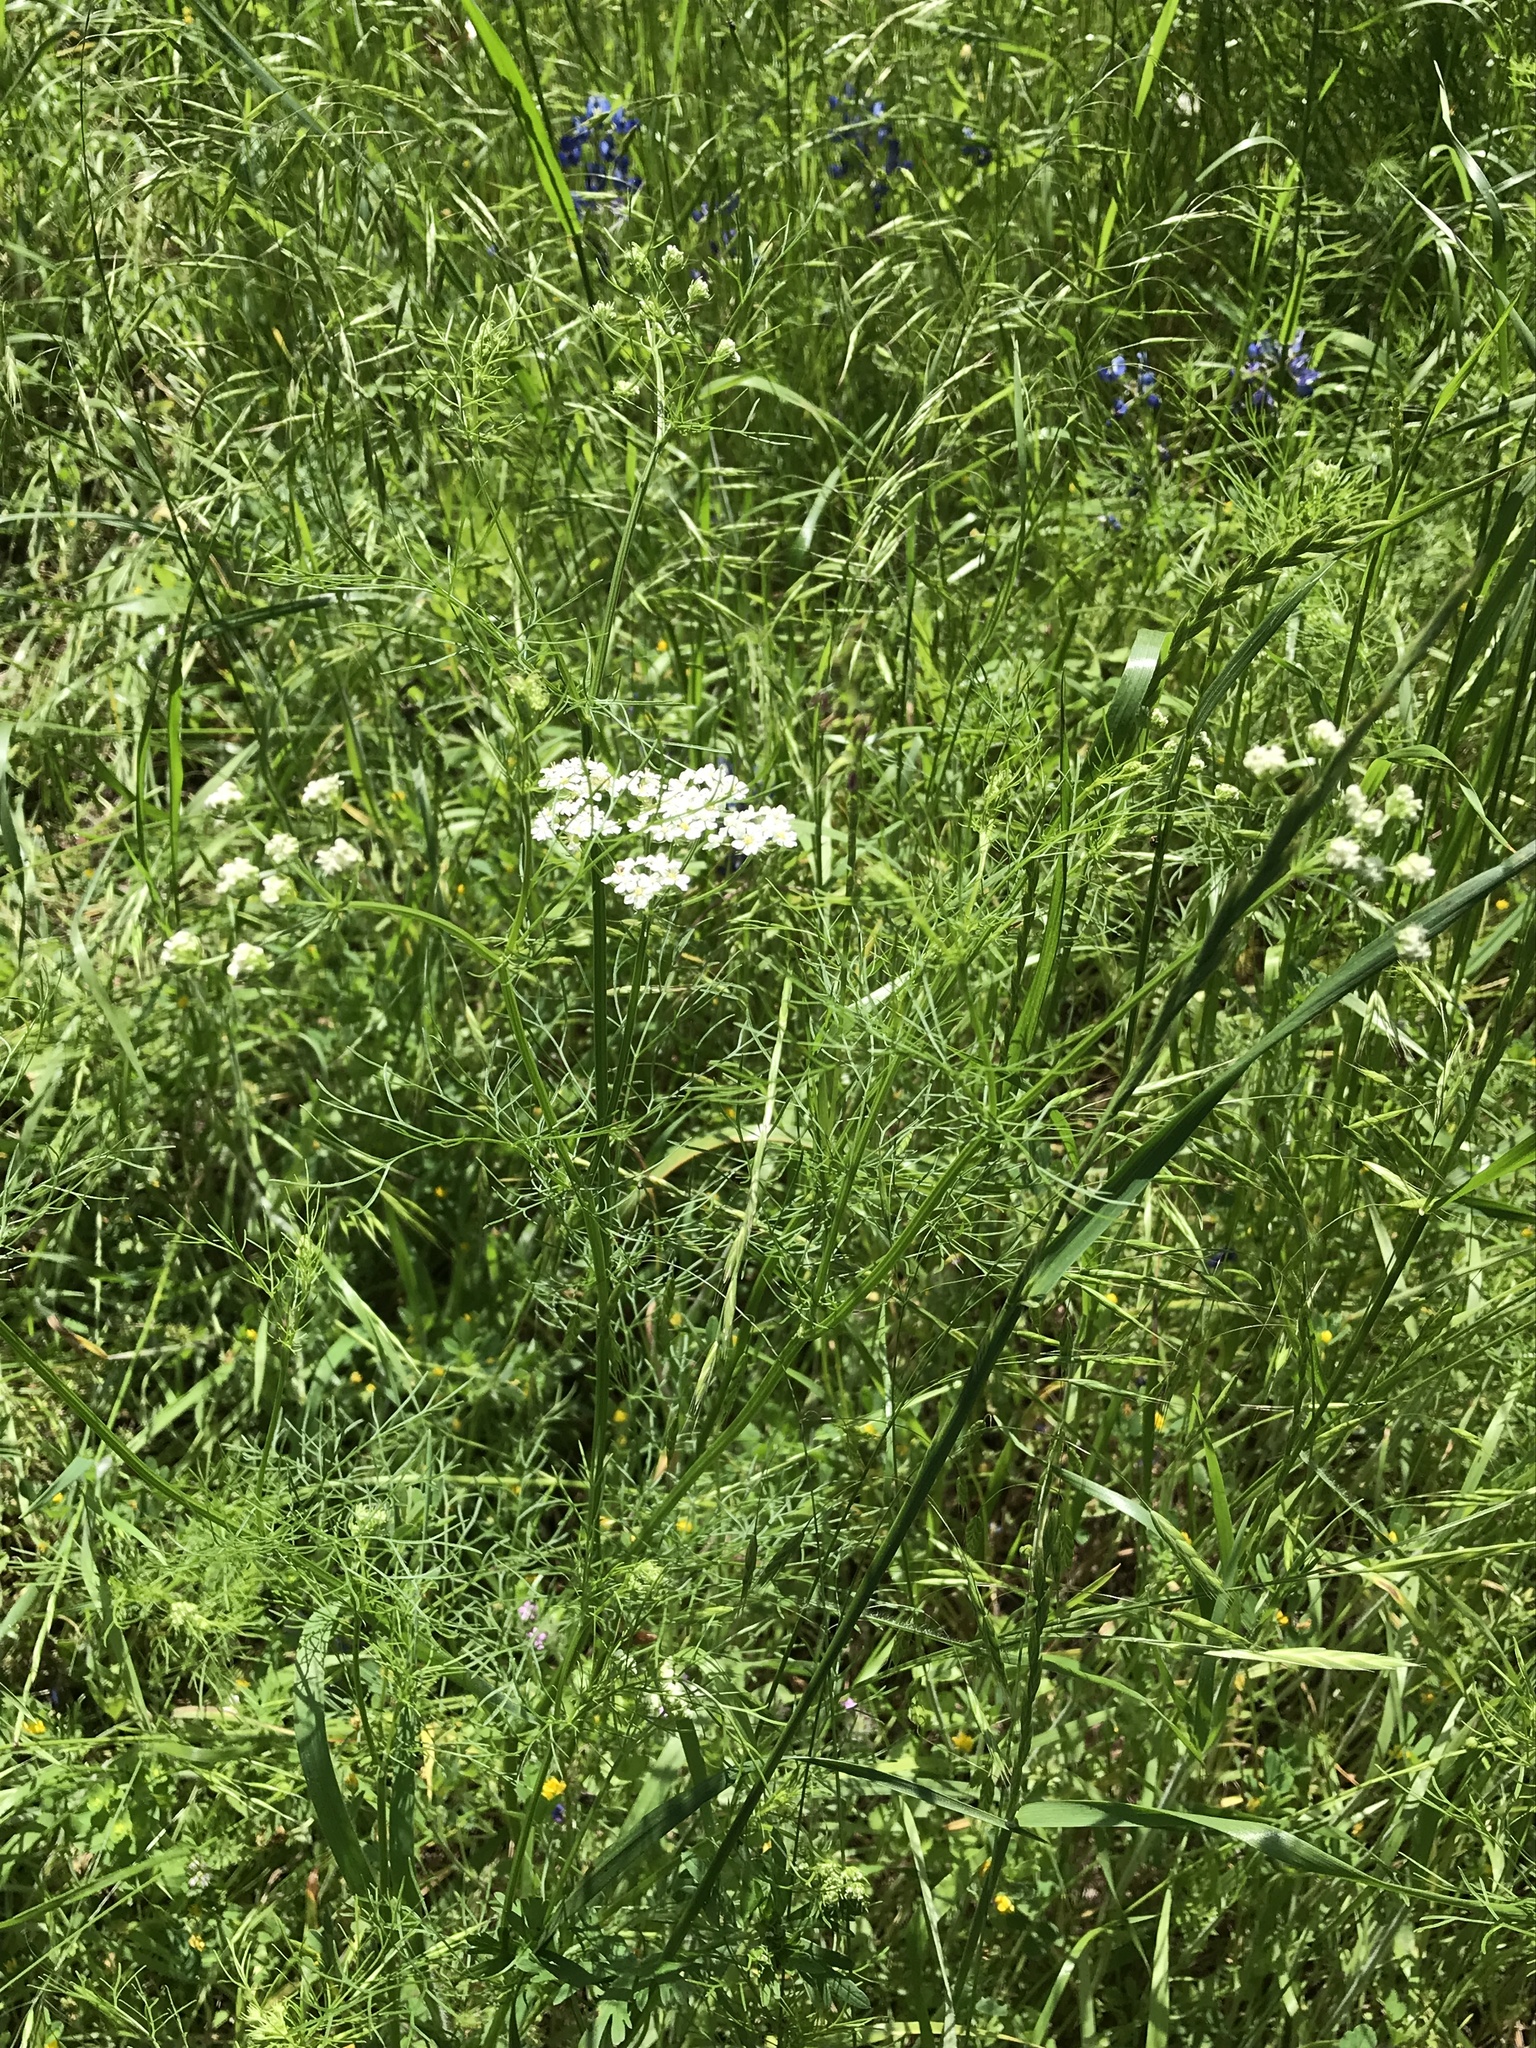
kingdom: Plantae
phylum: Tracheophyta
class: Magnoliopsida
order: Apiales
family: Apiaceae
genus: Atrema
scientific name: Atrema americanum
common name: Prairie-bishop
